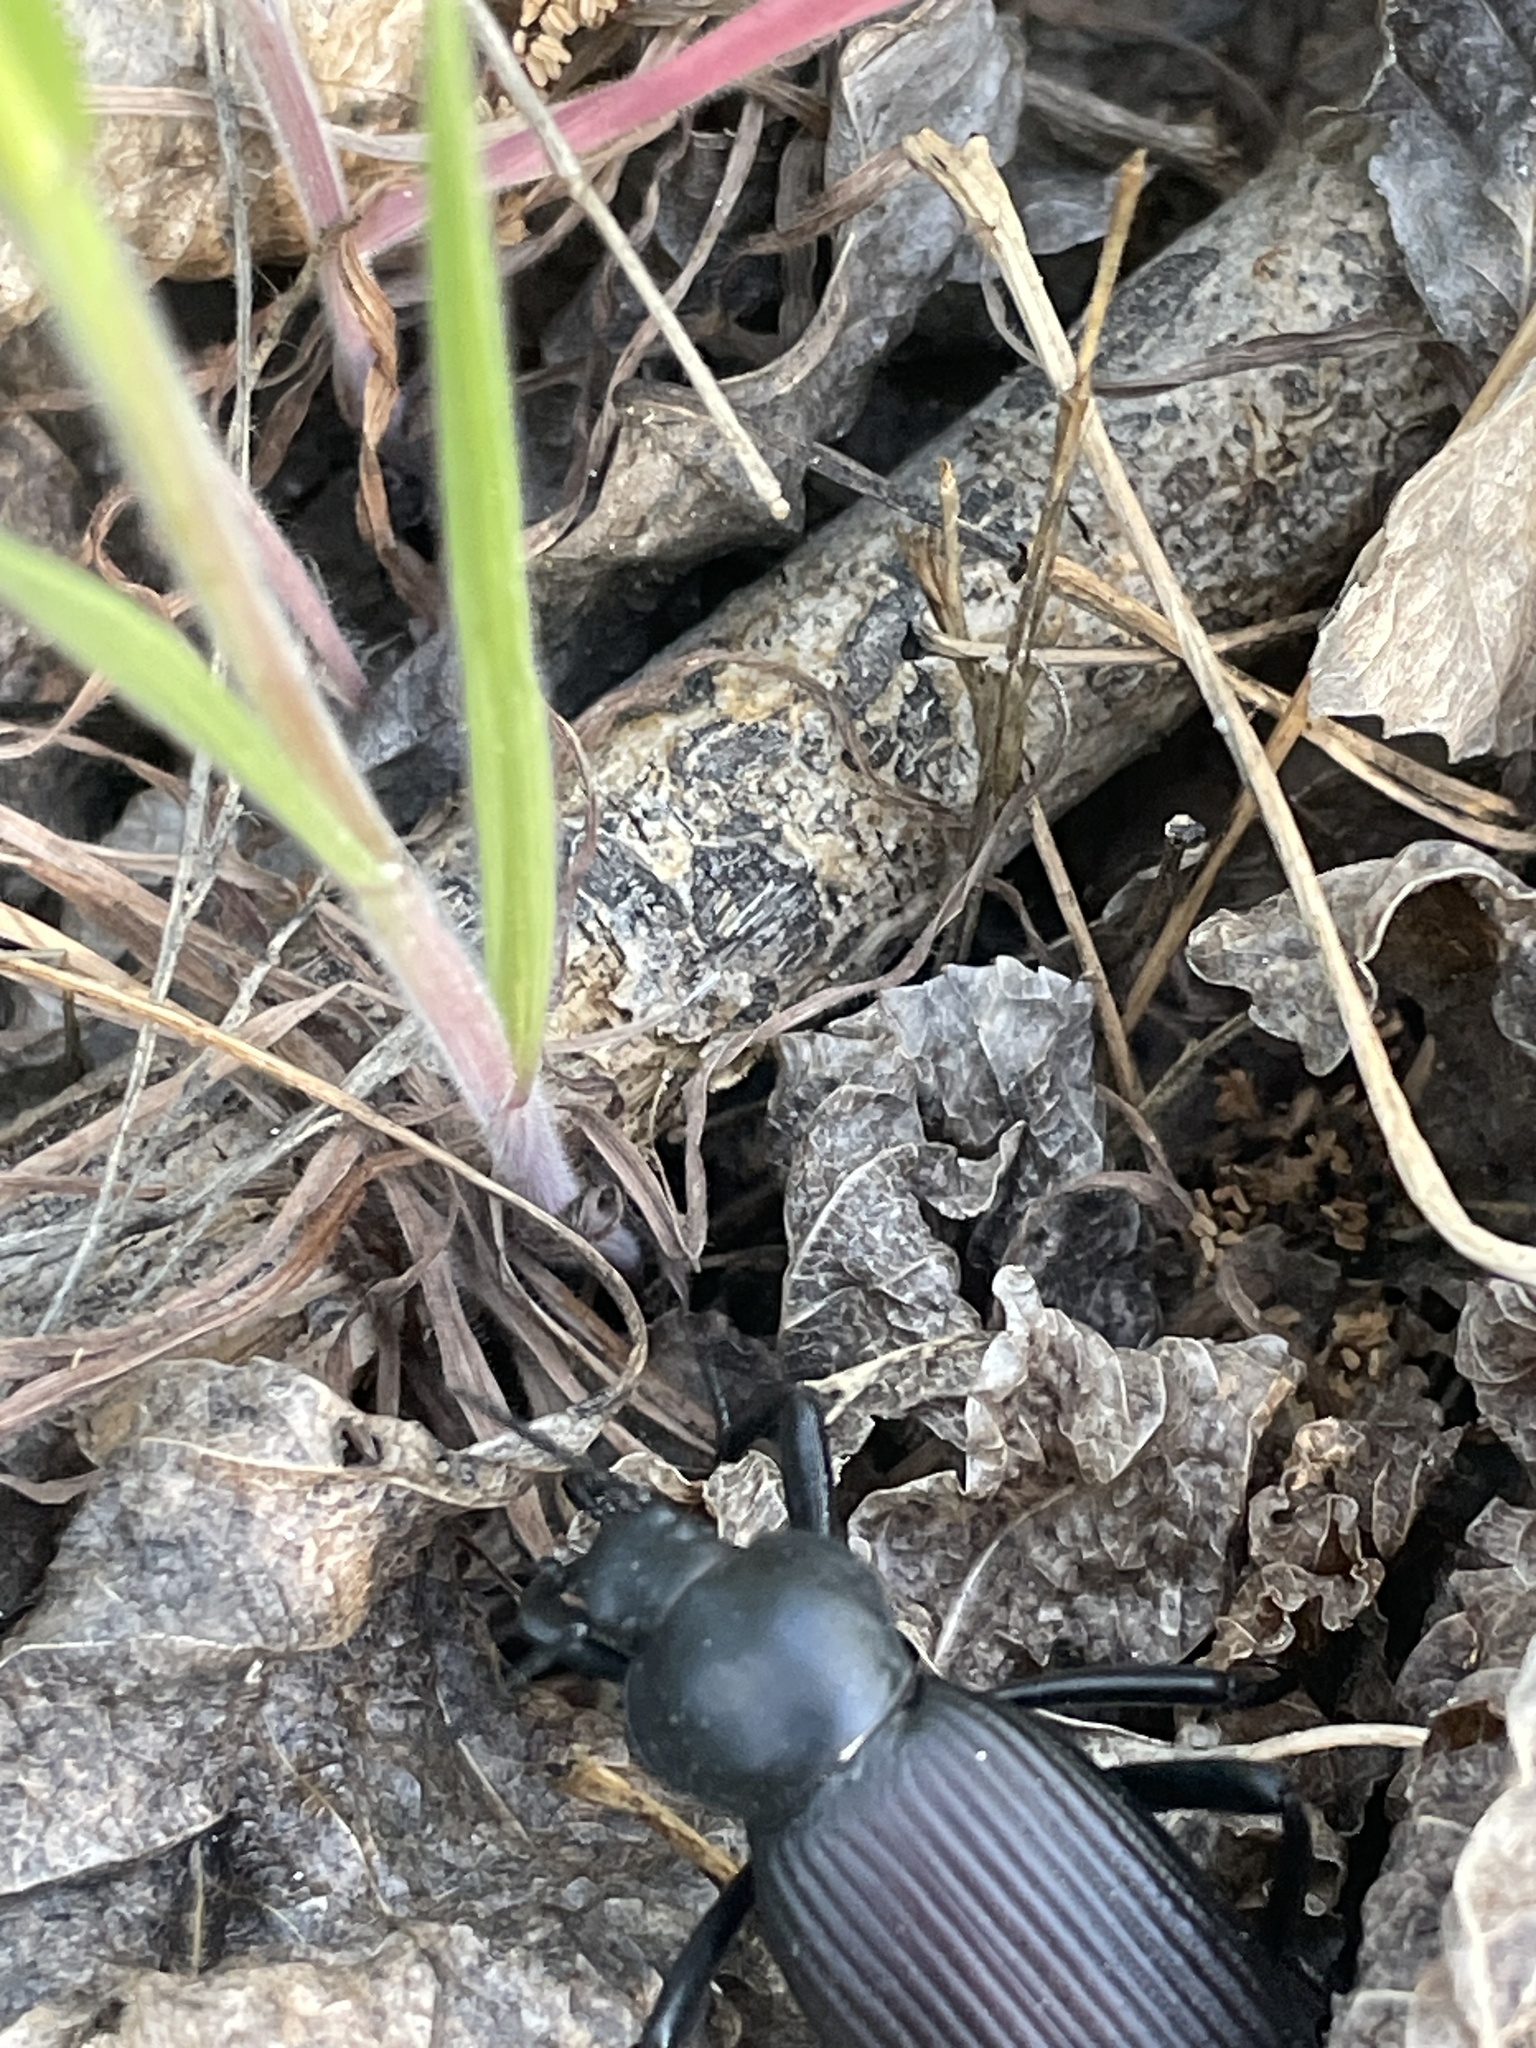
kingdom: Animalia
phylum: Arthropoda
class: Insecta
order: Coleoptera
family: Tenebrionidae
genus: Eleodes
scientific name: Eleodes obscura
